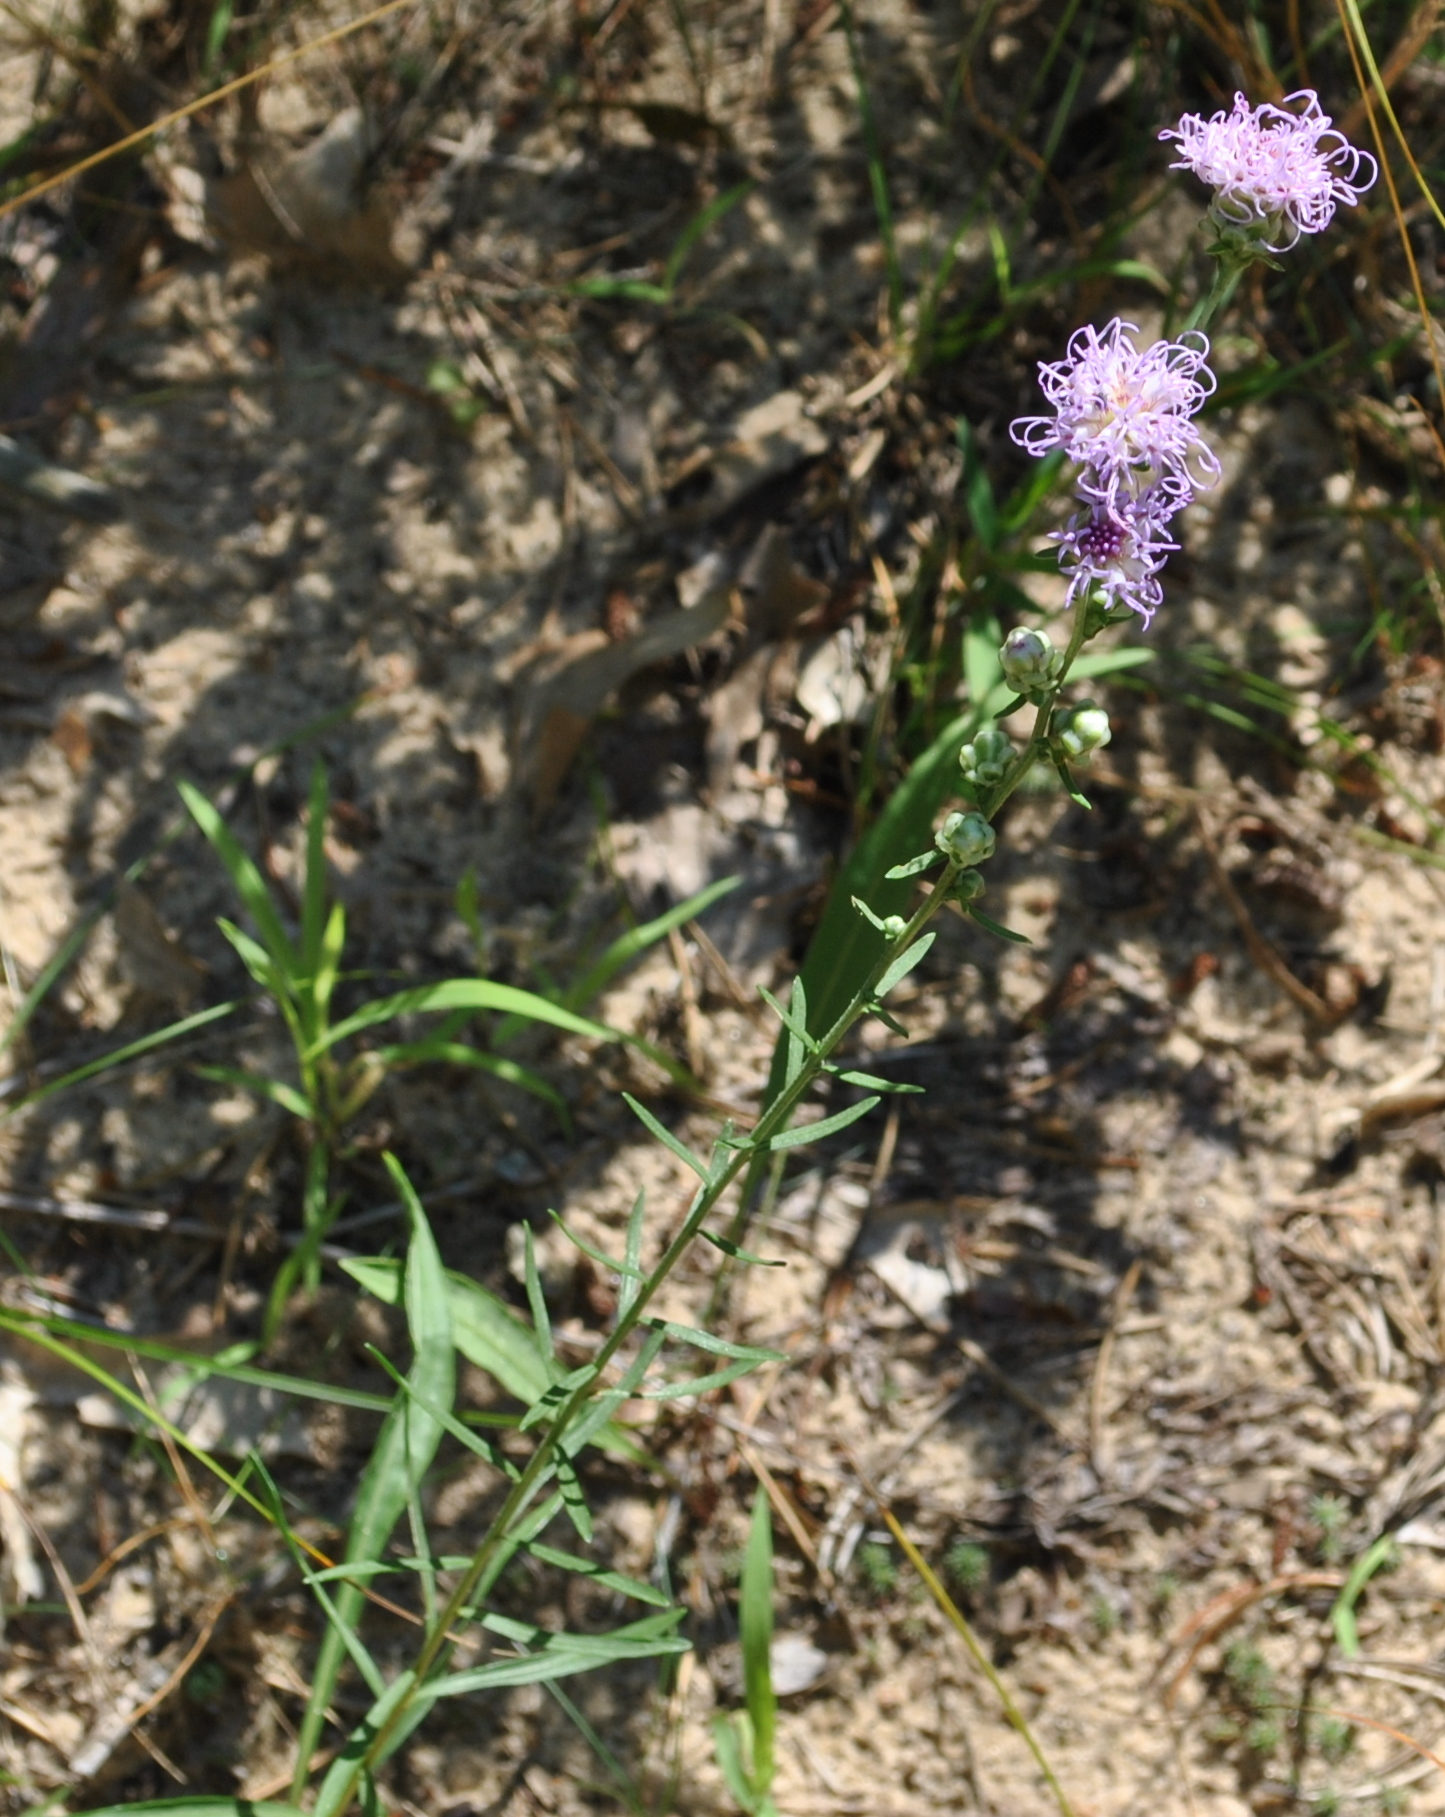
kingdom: Plantae
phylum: Tracheophyta
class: Magnoliopsida
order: Asterales
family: Asteraceae
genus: Liatris
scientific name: Liatris aspera
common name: Lacerate blazing-star
